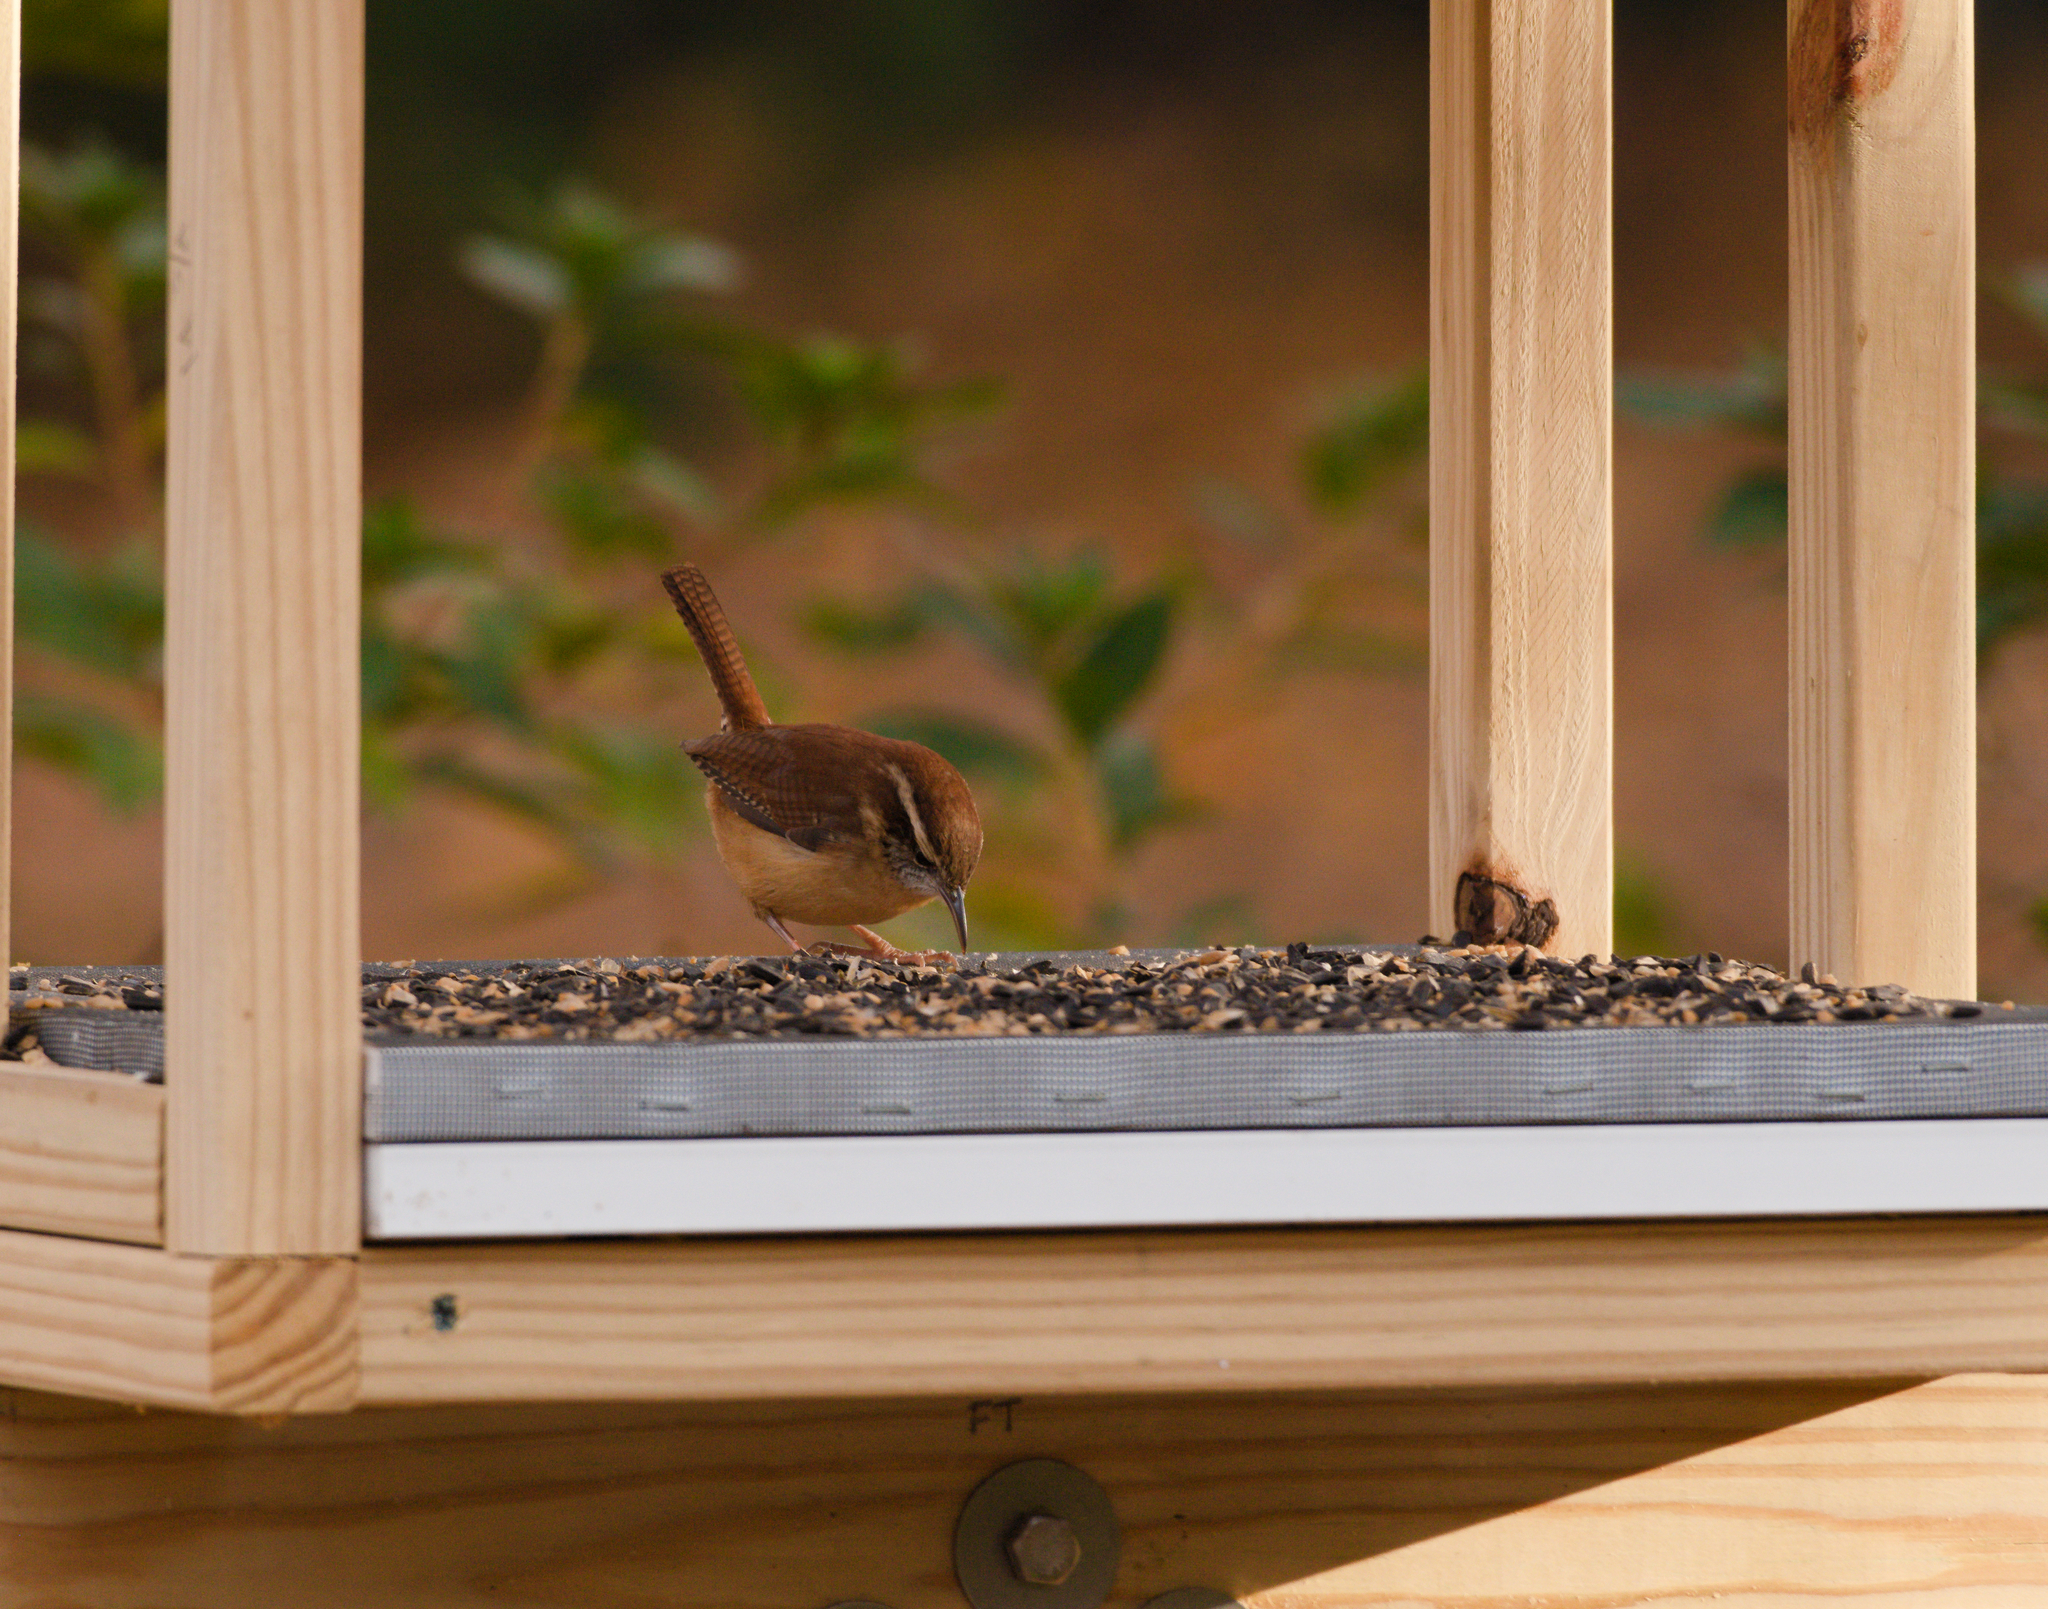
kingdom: Animalia
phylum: Chordata
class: Aves
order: Passeriformes
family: Troglodytidae
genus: Thryothorus
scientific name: Thryothorus ludovicianus
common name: Carolina wren
